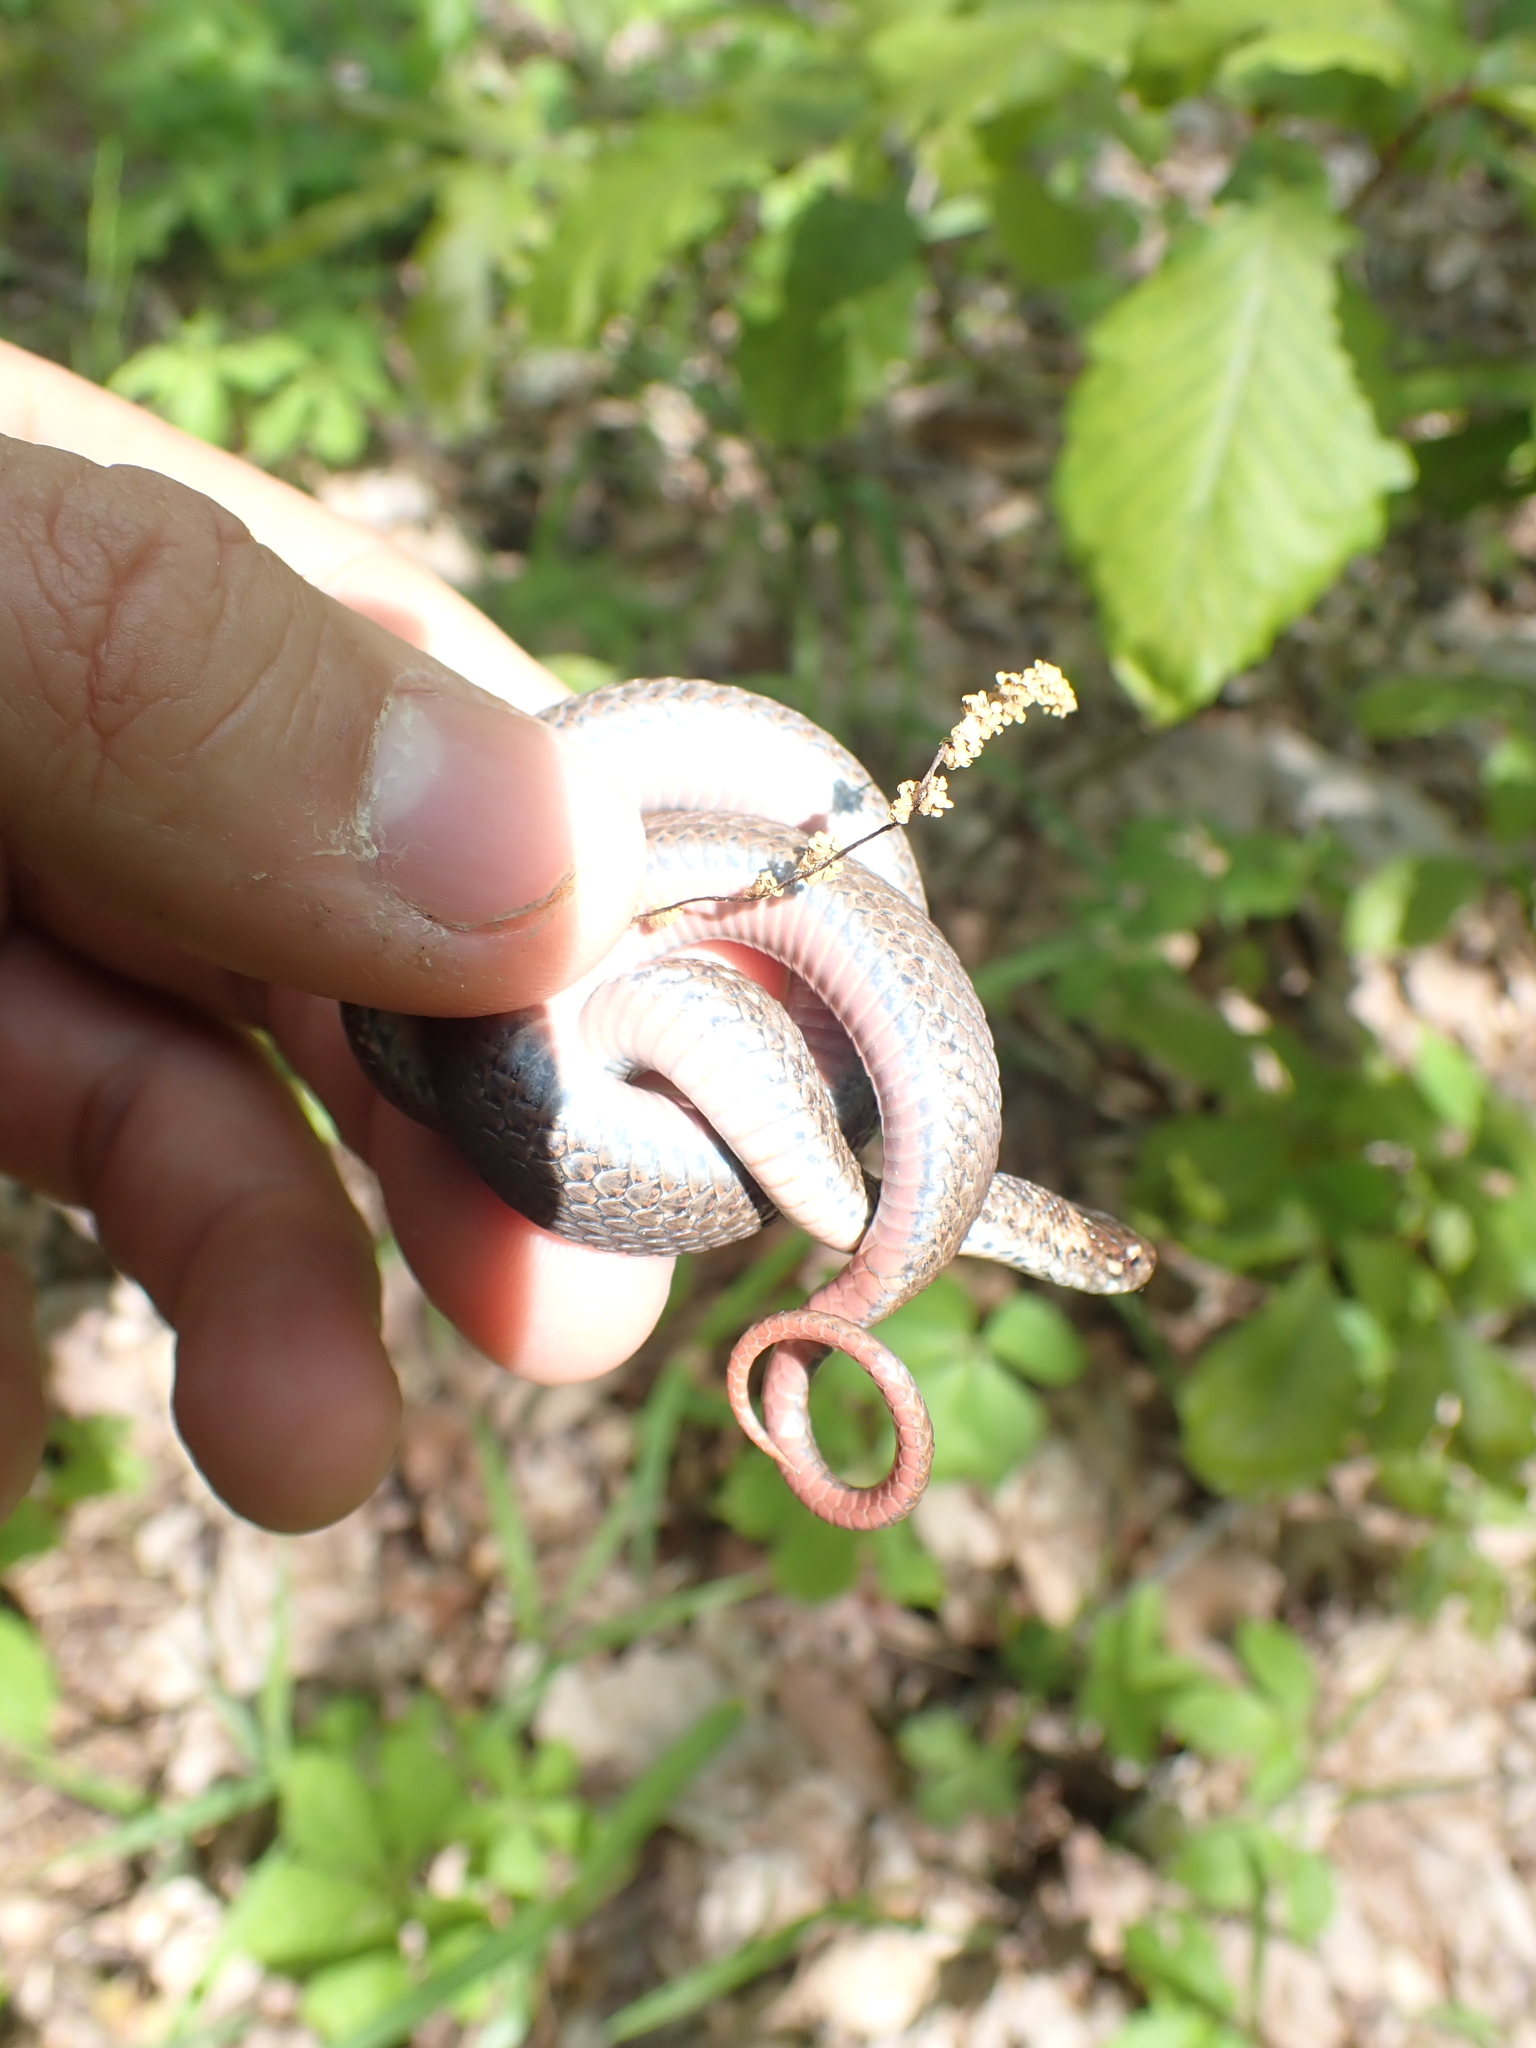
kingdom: Animalia
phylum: Chordata
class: Squamata
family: Colubridae
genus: Storeria
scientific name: Storeria occipitomaculata
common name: Redbelly snake
